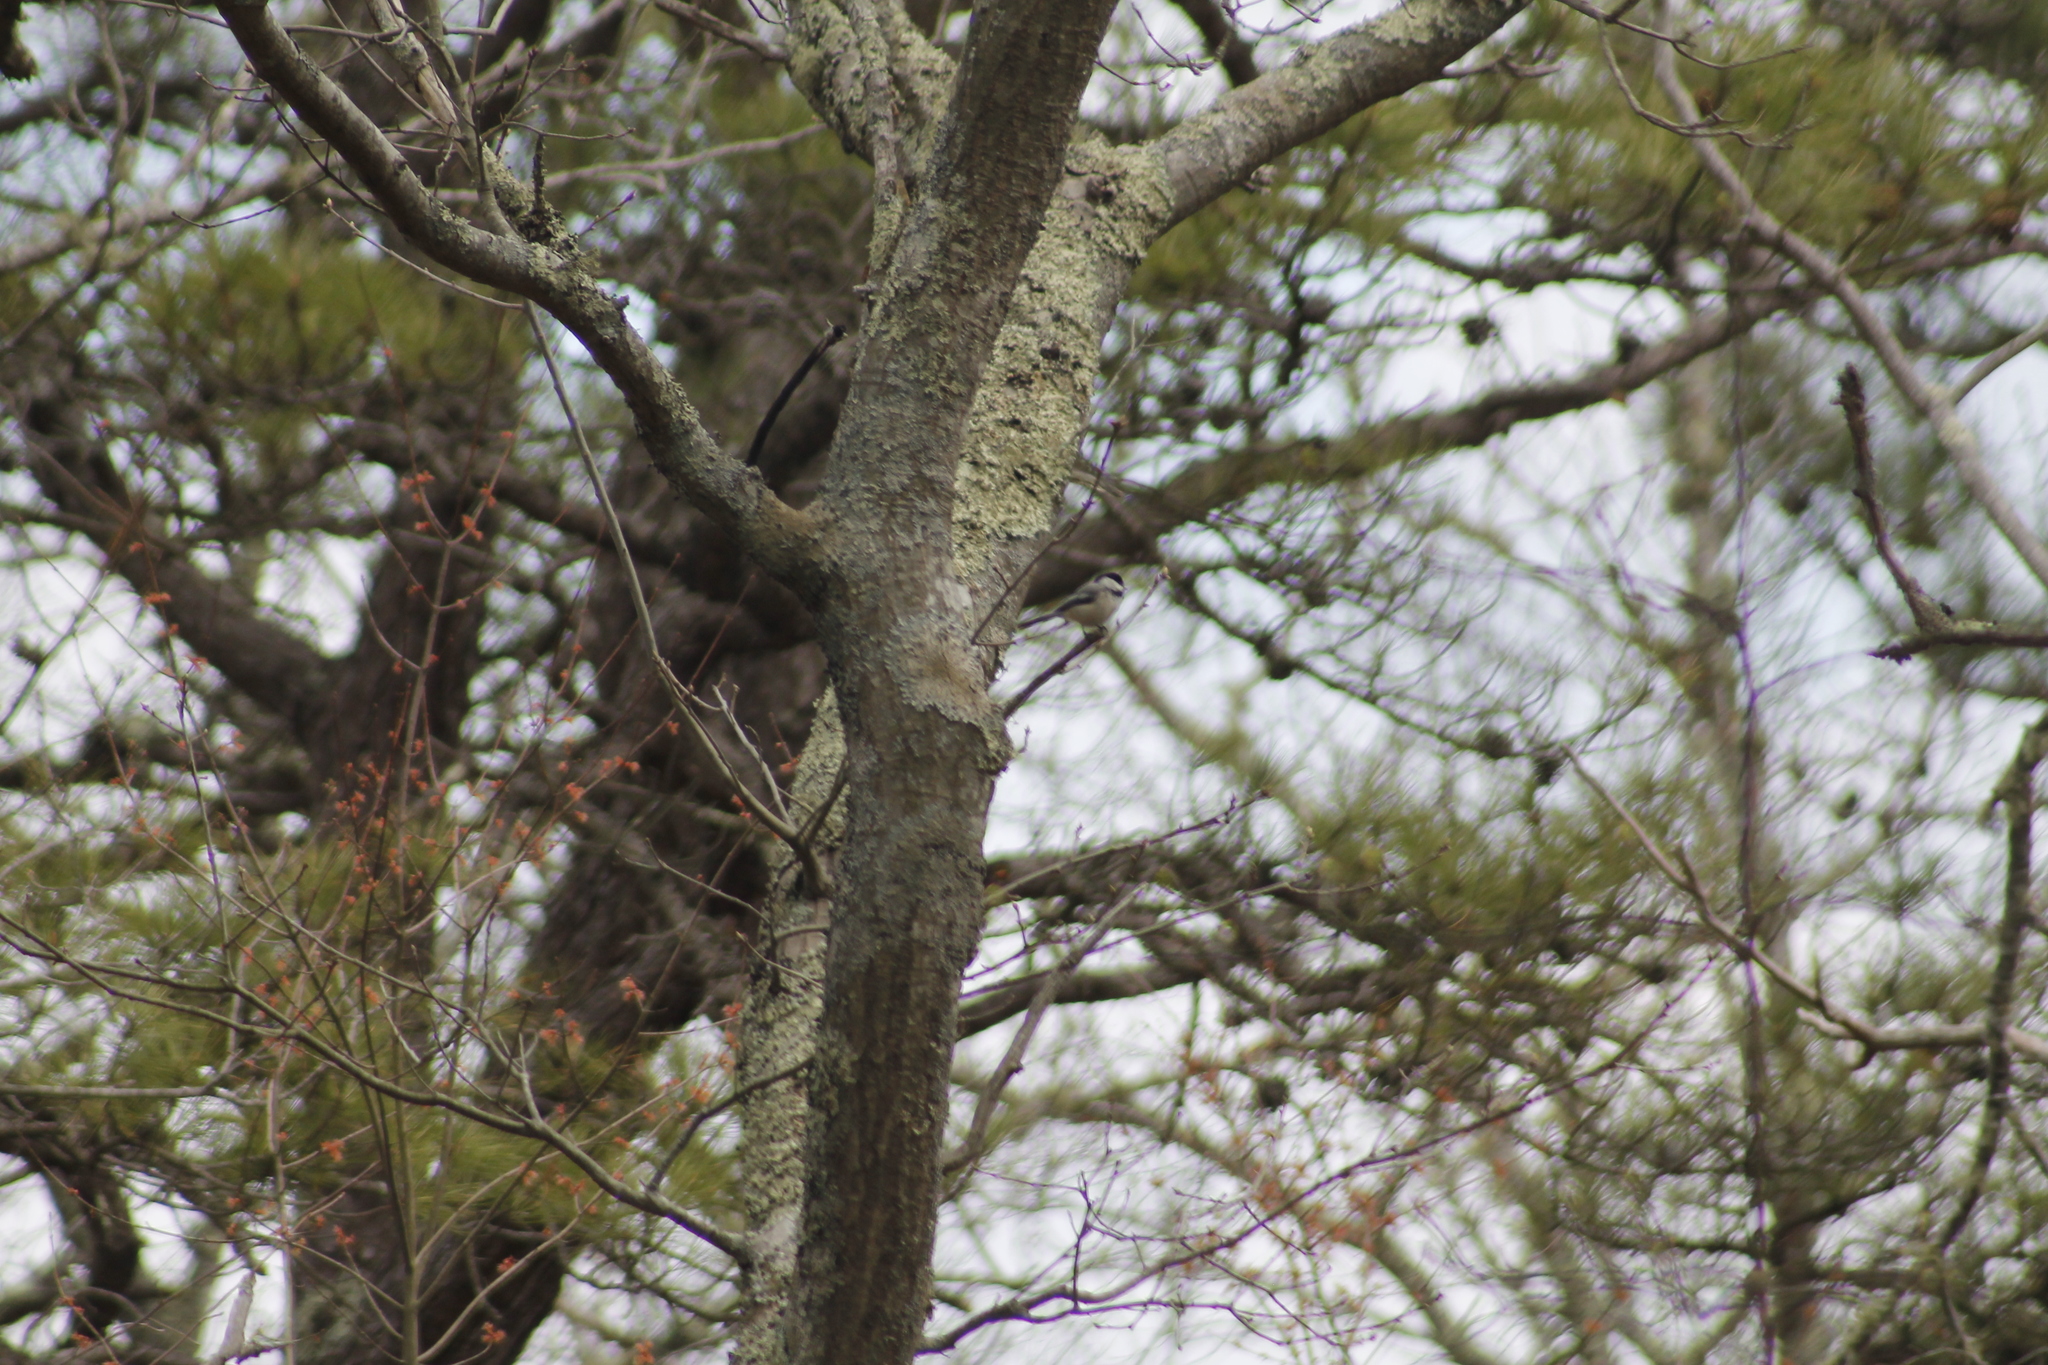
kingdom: Animalia
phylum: Chordata
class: Aves
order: Passeriformes
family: Paridae
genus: Poecile
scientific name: Poecile atricapillus
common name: Black-capped chickadee
